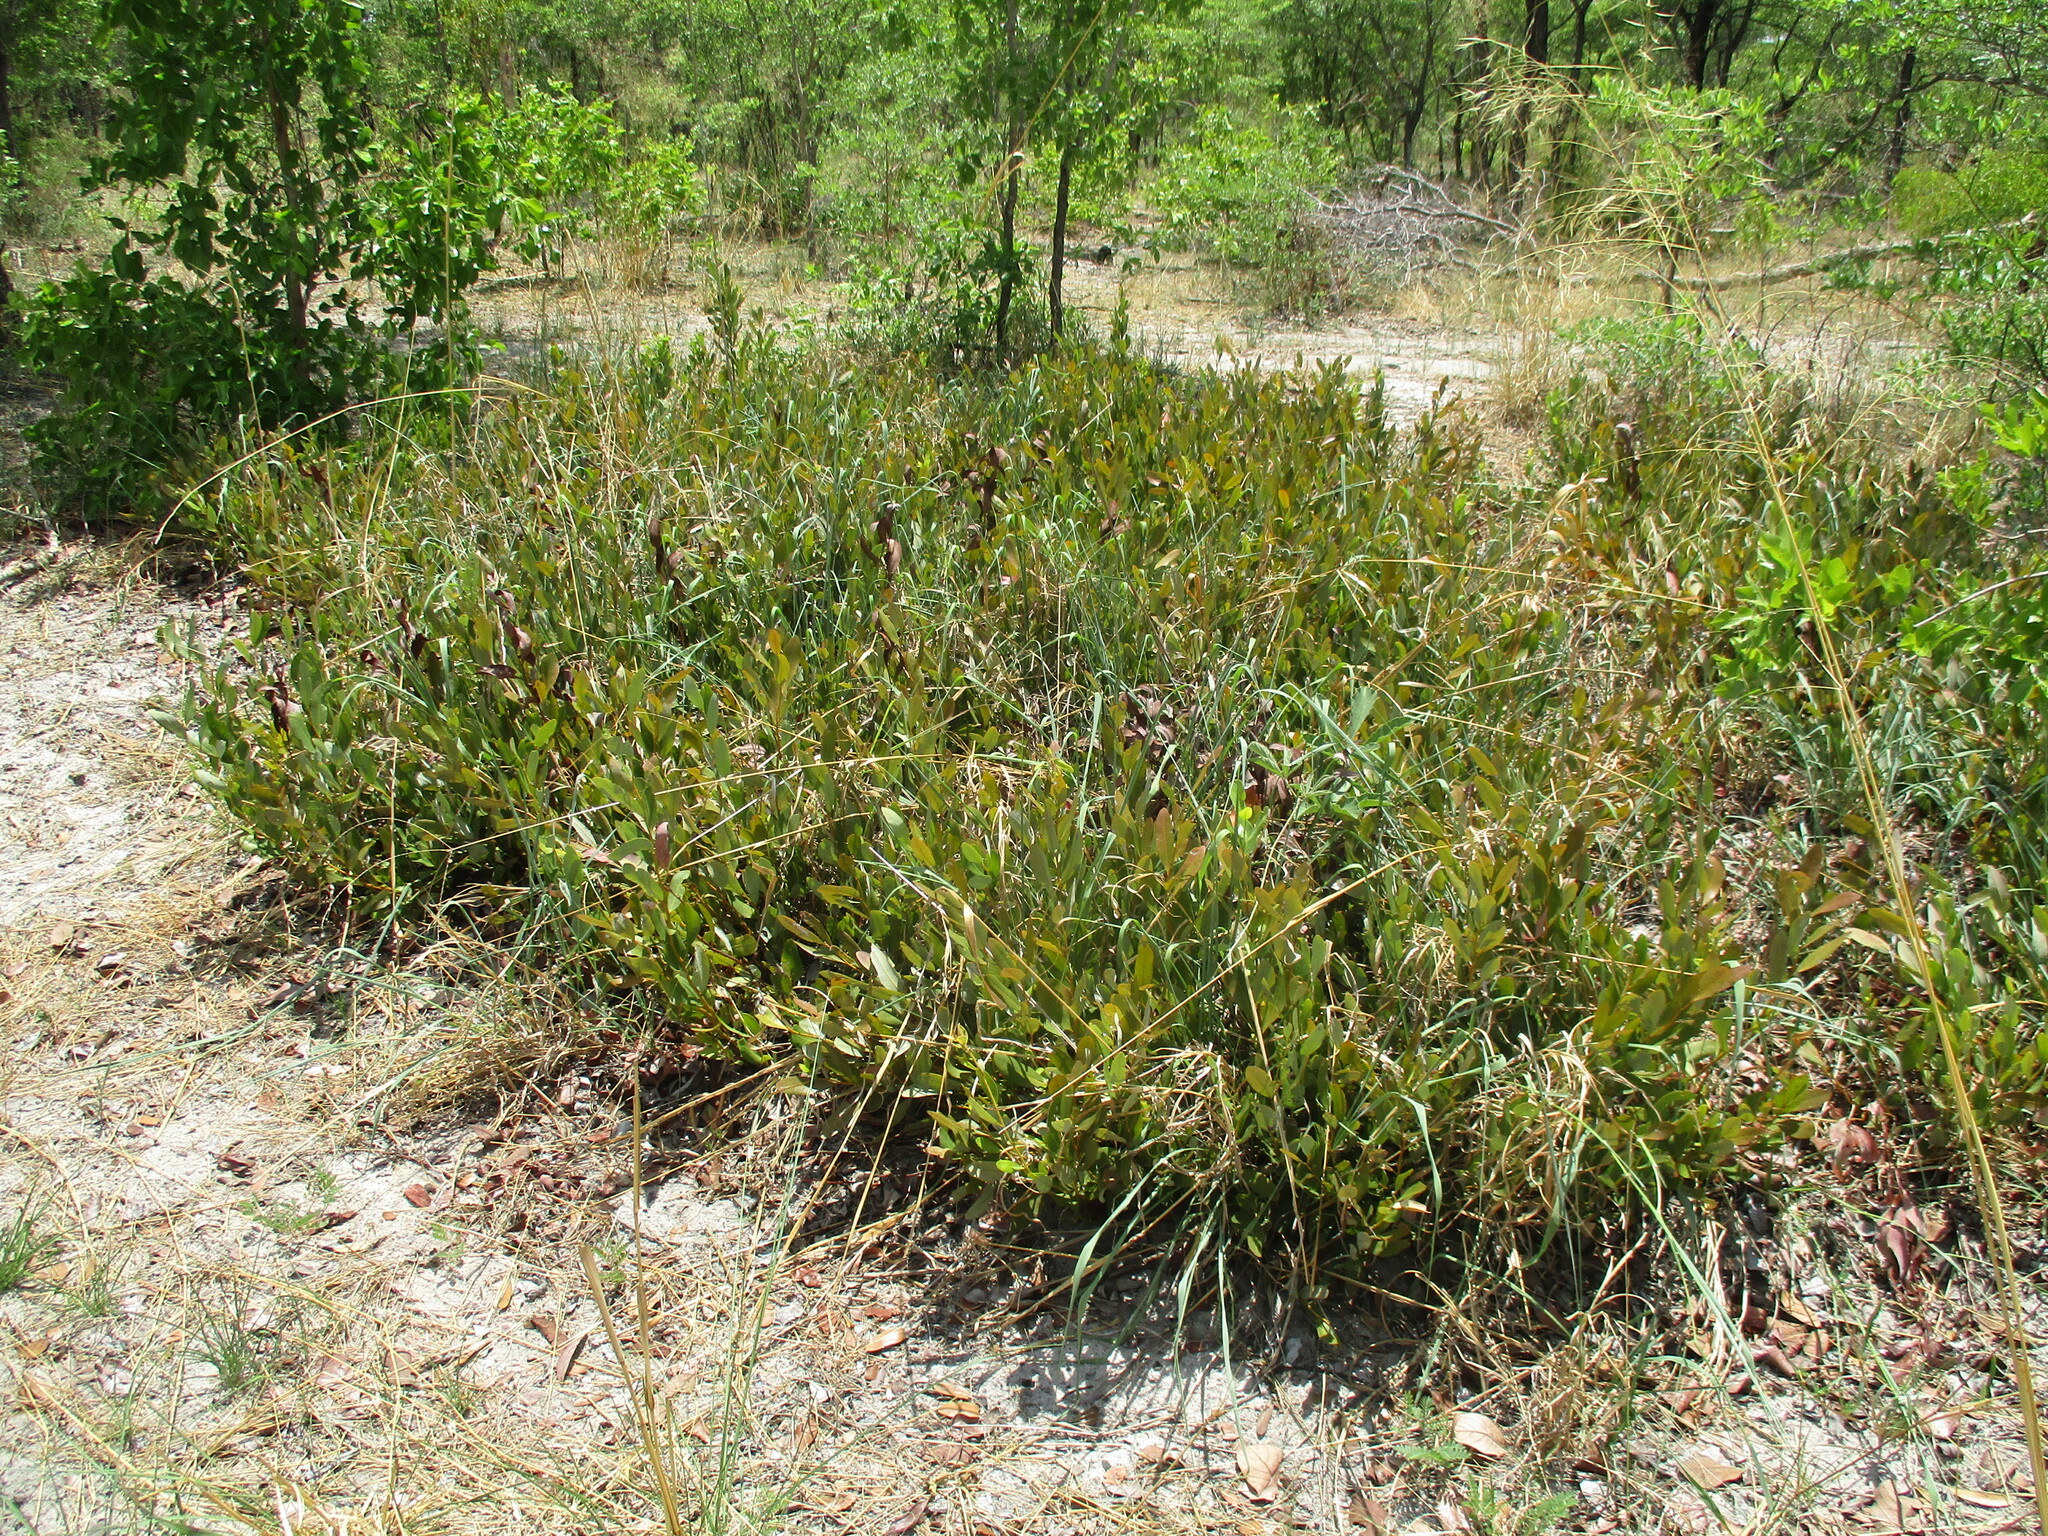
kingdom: Plantae
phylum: Tracheophyta
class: Magnoliopsida
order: Ericales
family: Ebenaceae
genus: Diospyros
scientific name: Diospyros chamaethamnus
